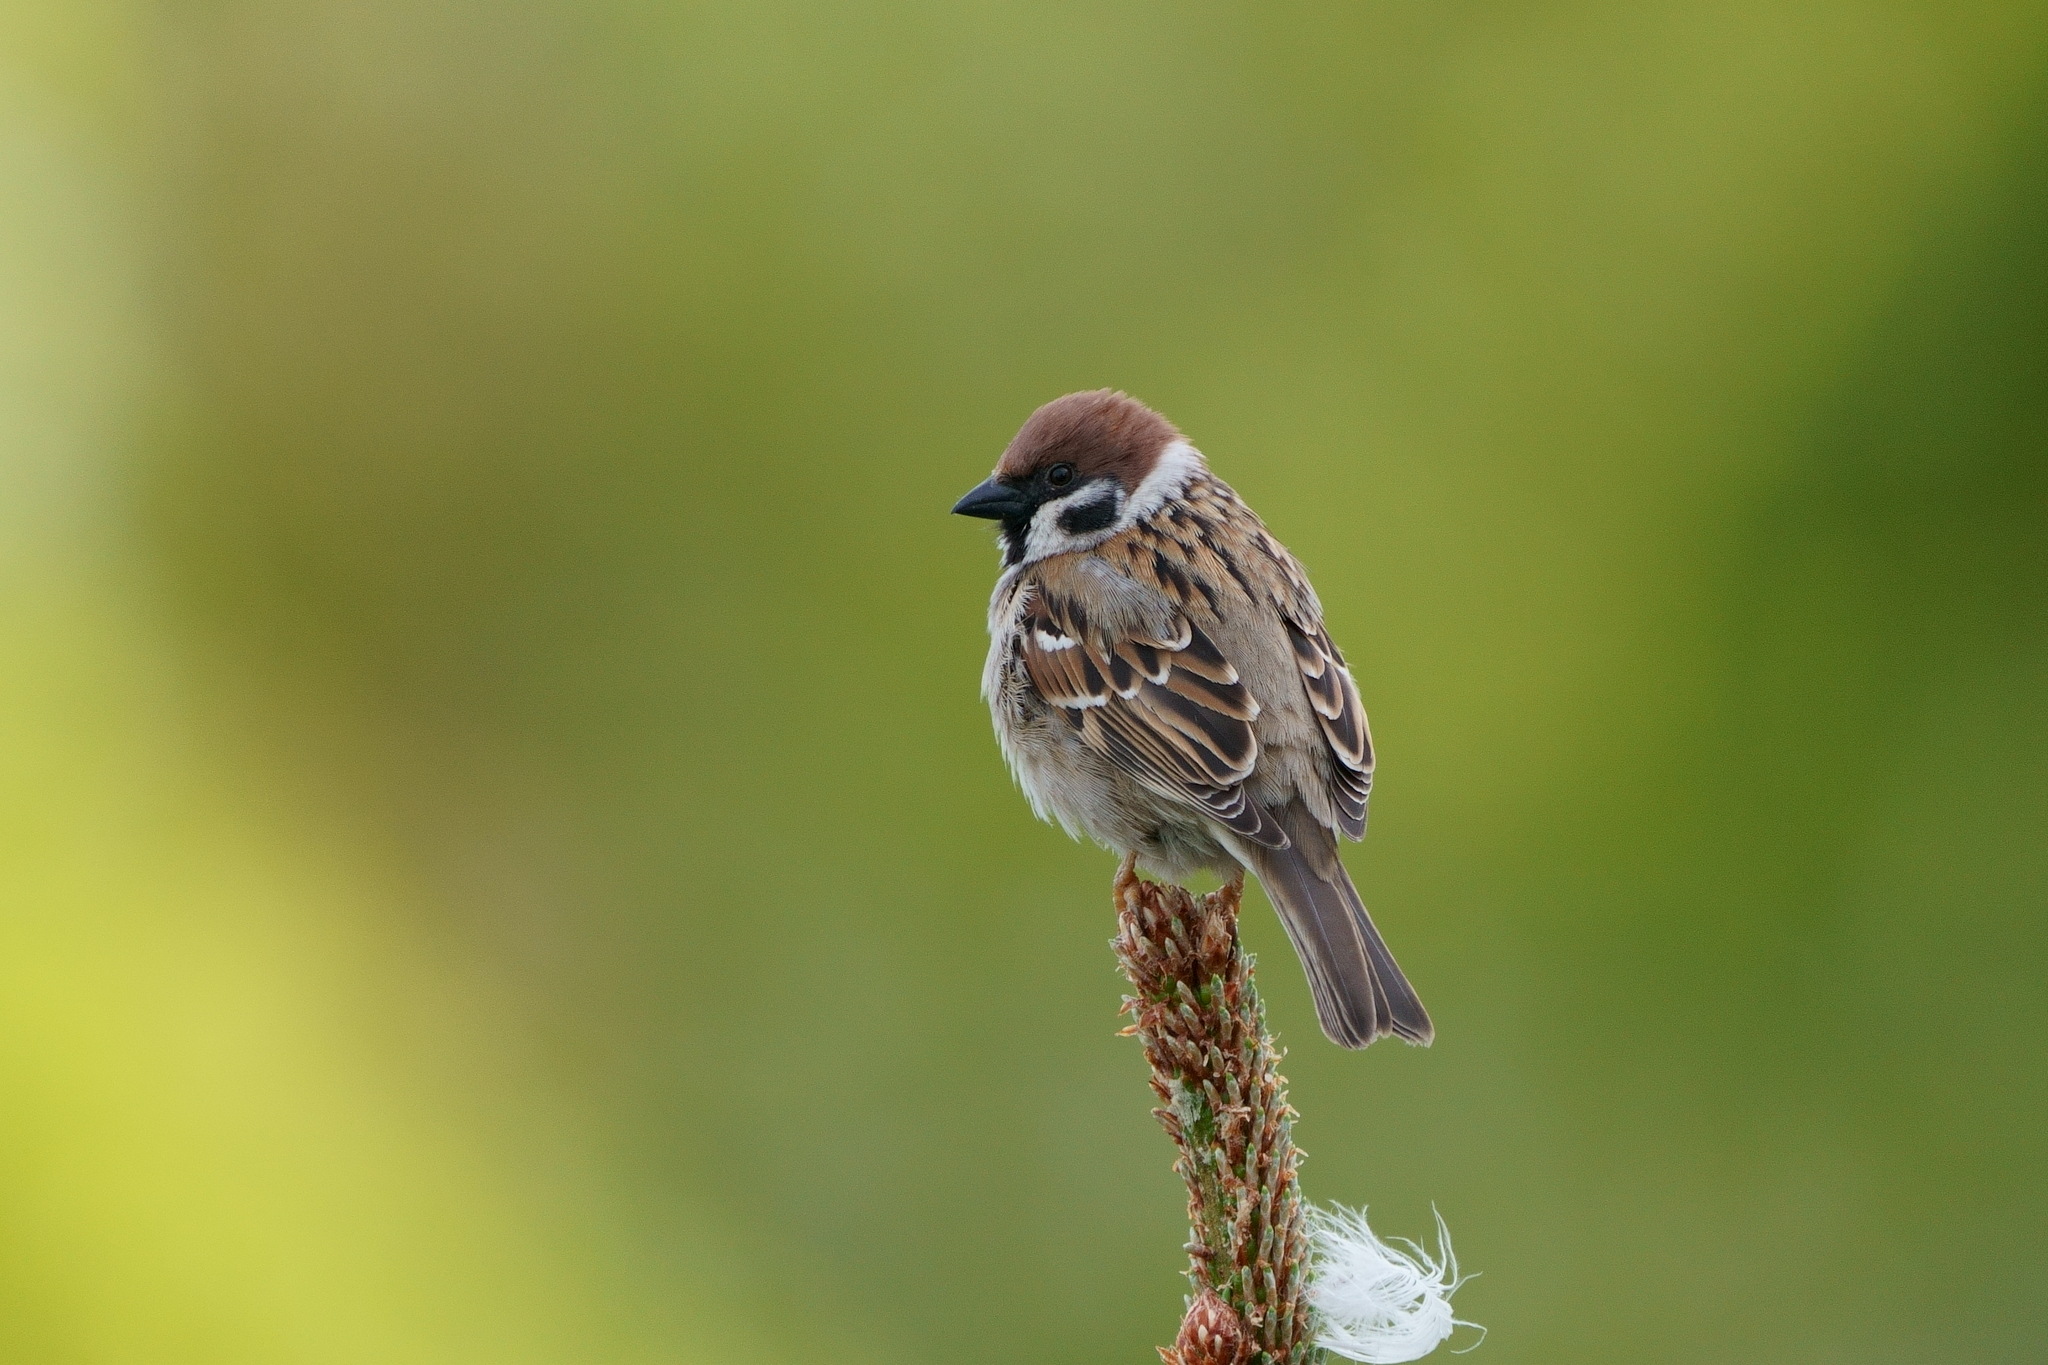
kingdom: Animalia
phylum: Chordata
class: Aves
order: Passeriformes
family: Passeridae
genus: Passer
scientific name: Passer montanus
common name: Eurasian tree sparrow
